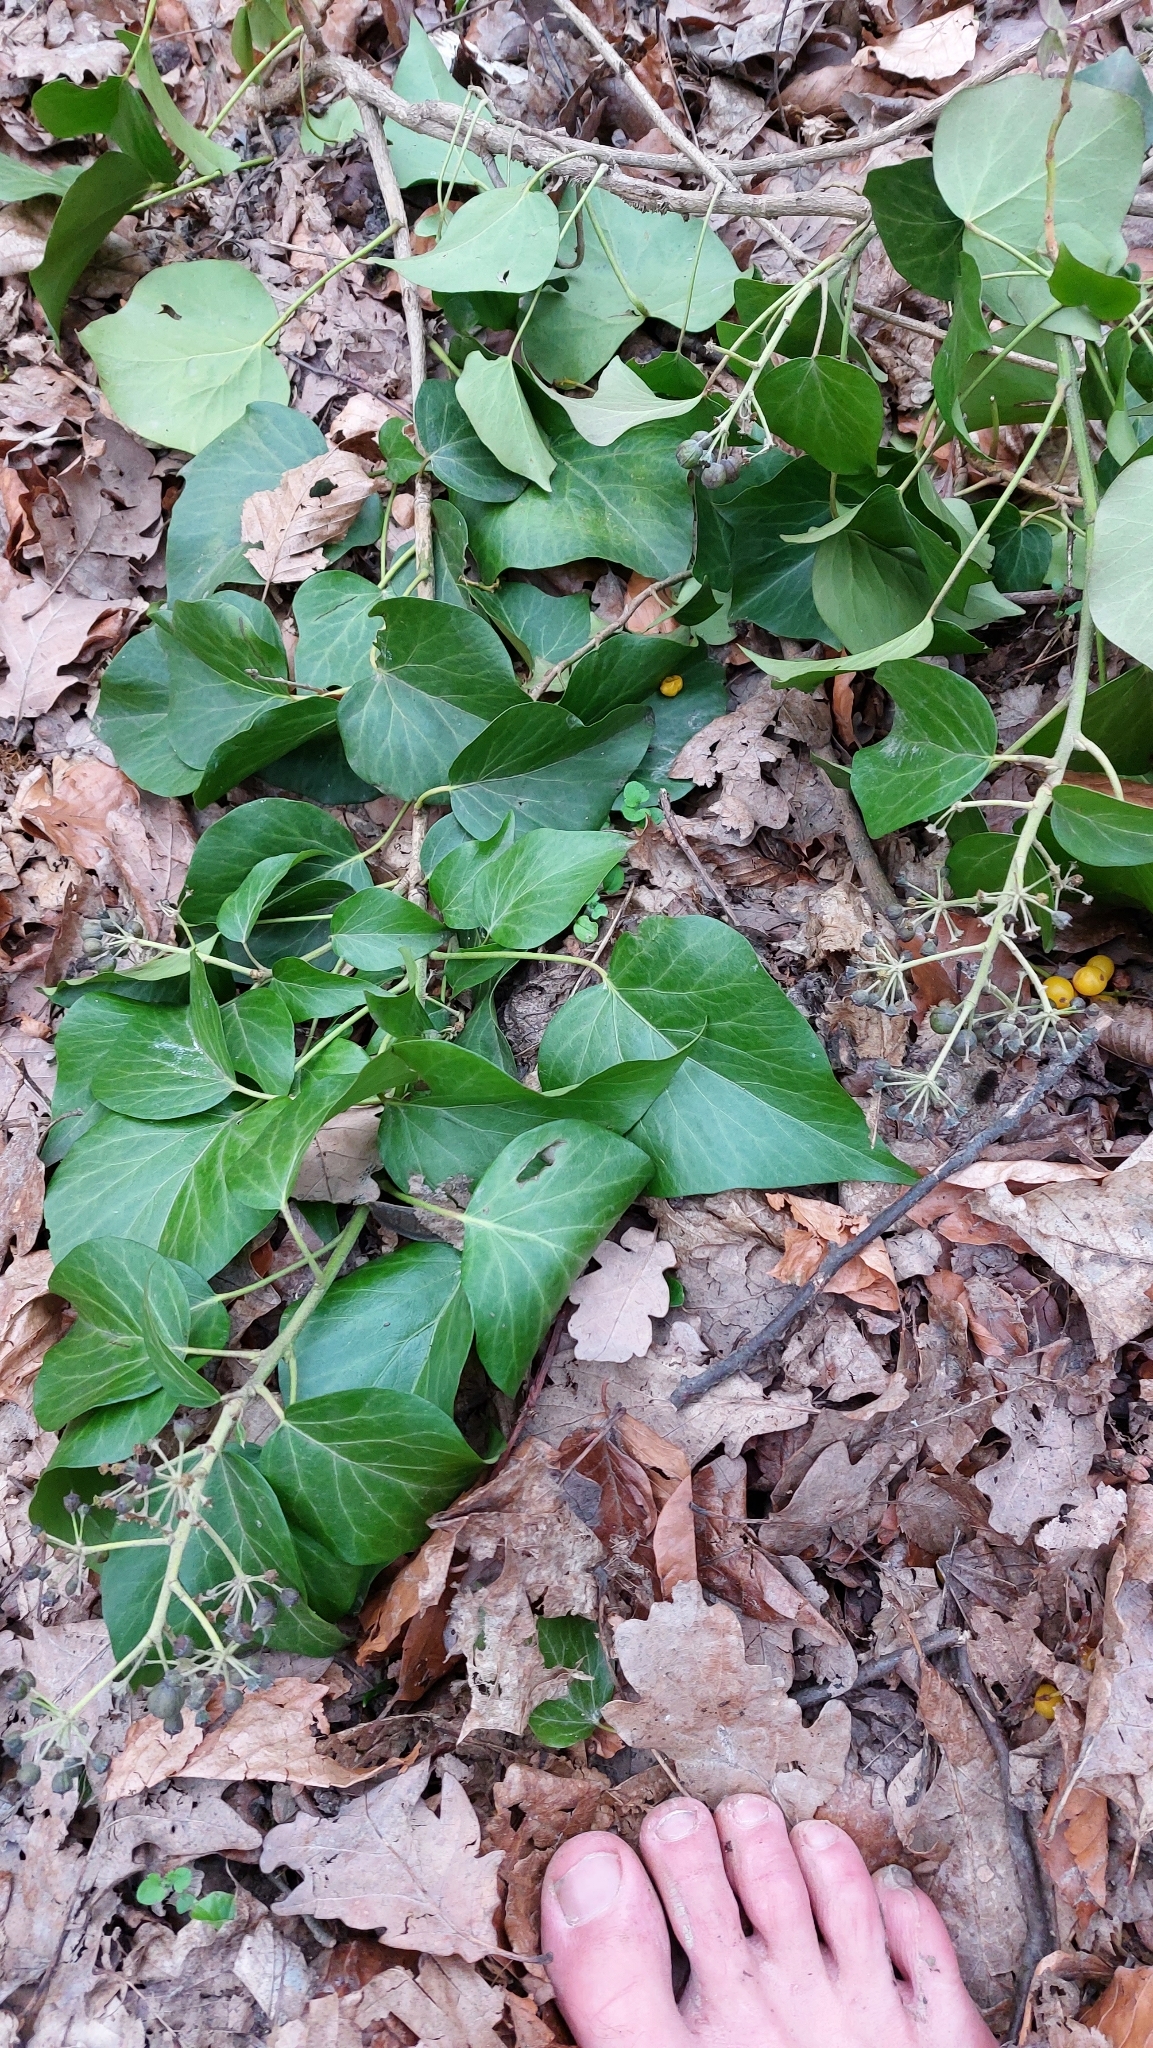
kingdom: Plantae
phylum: Tracheophyta
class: Magnoliopsida
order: Apiales
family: Araliaceae
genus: Hedera
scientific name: Hedera helix
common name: Ivy
